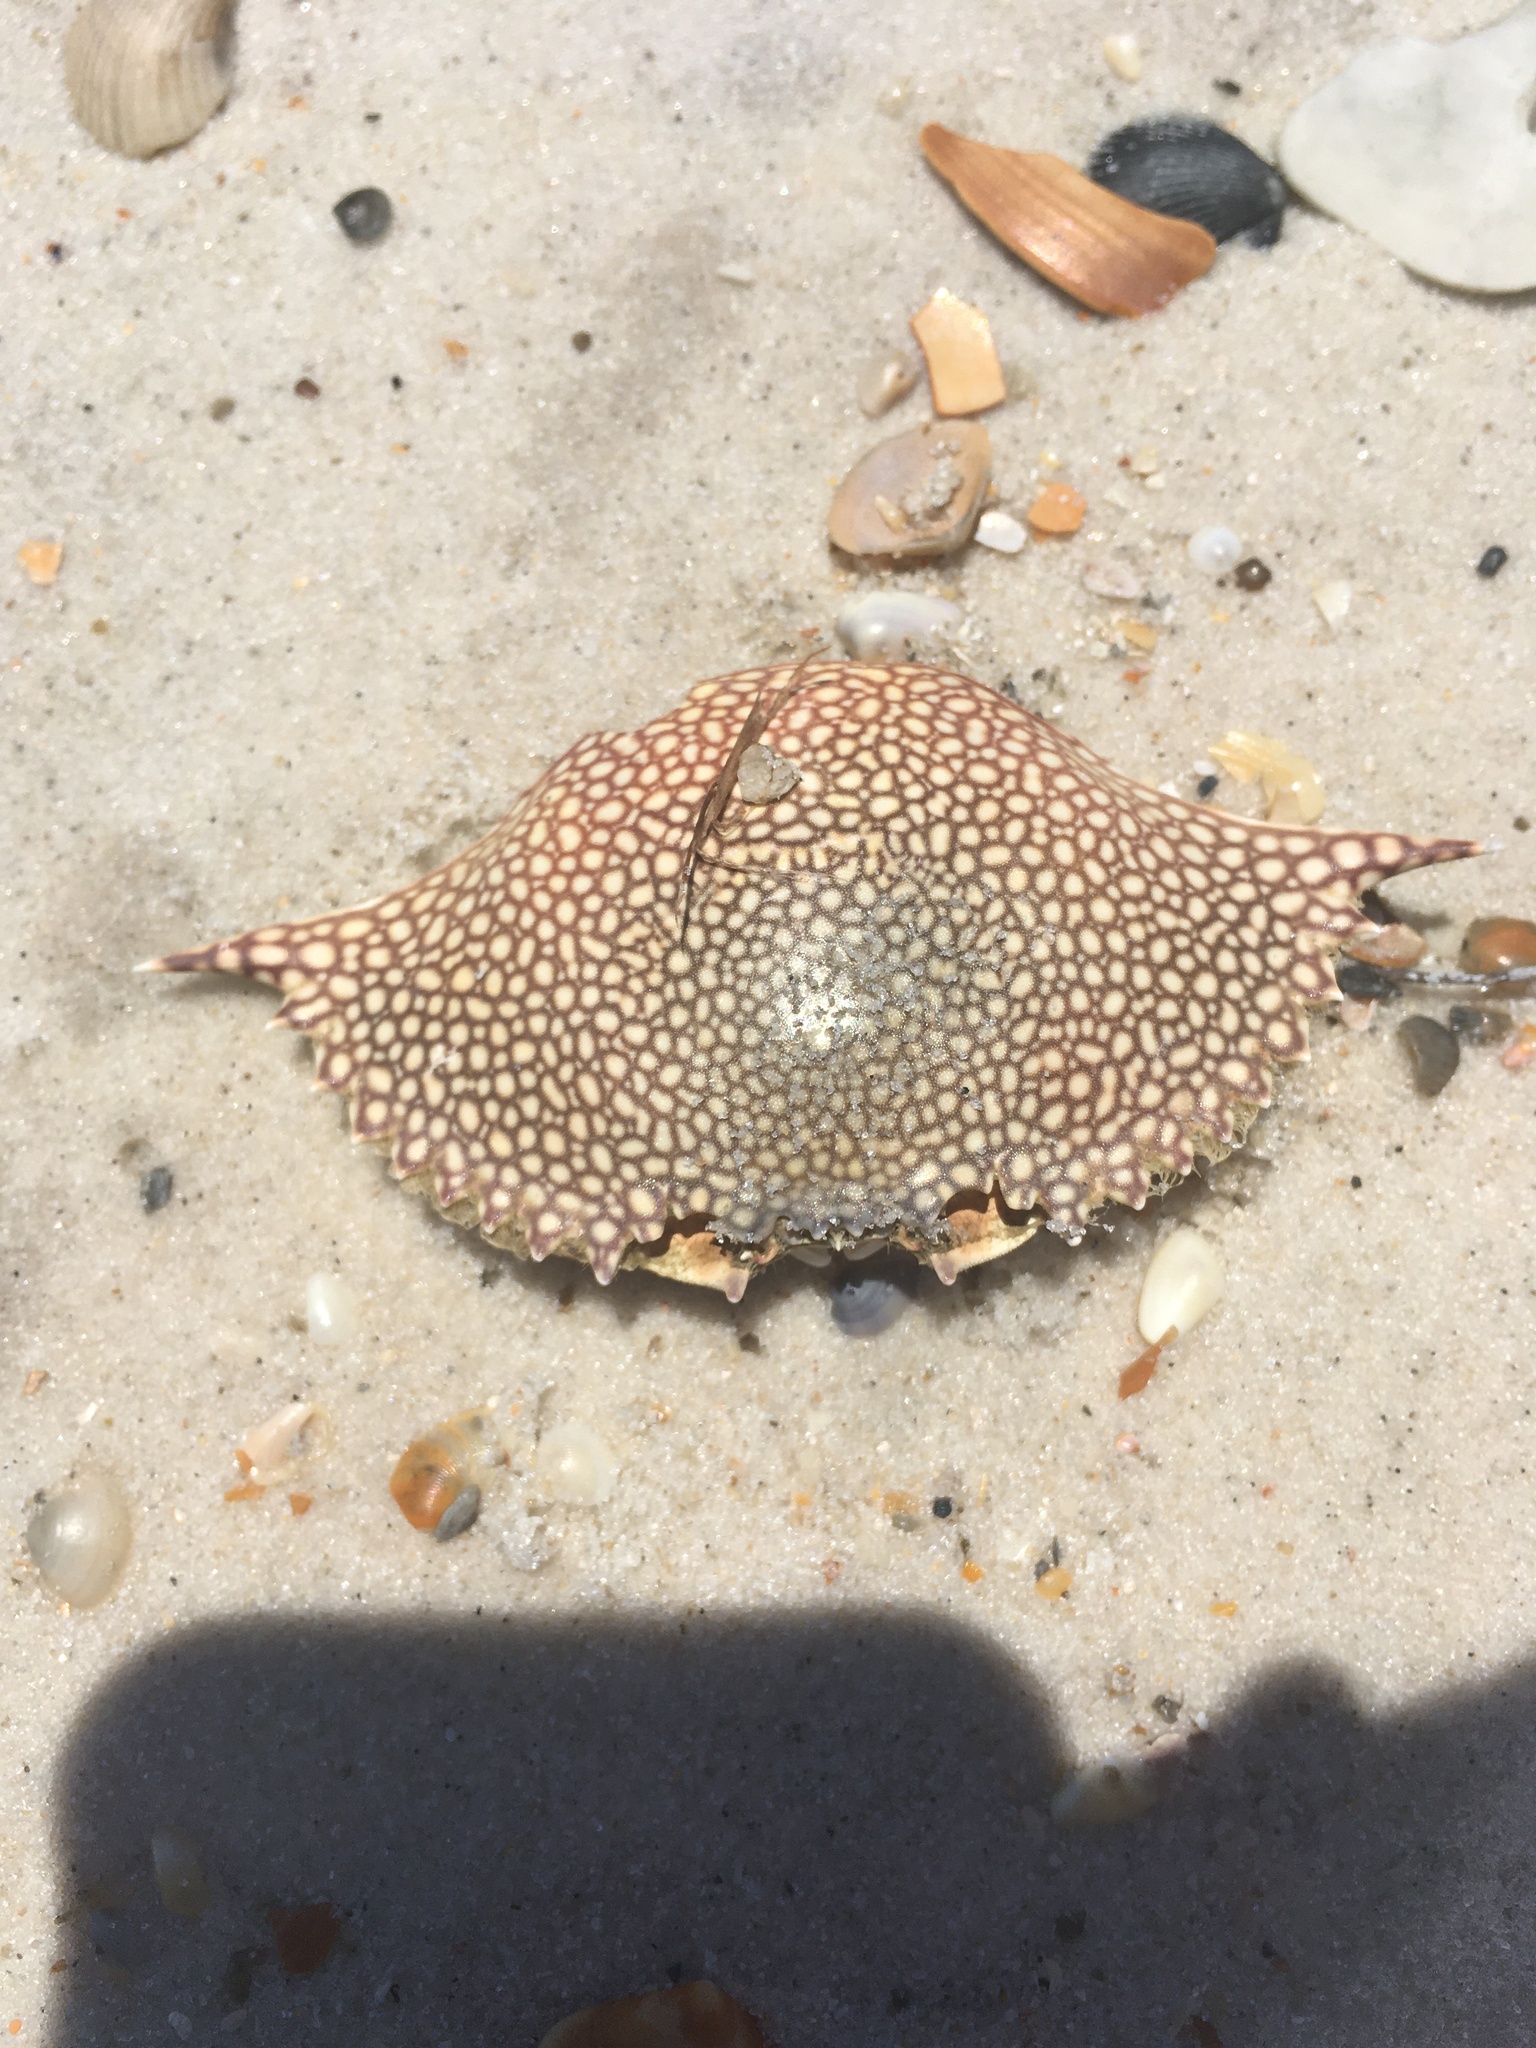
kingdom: Animalia
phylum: Arthropoda
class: Malacostraca
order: Decapoda
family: Portunidae
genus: Arenaeus
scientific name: Arenaeus cribrarius
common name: Speckled crab
